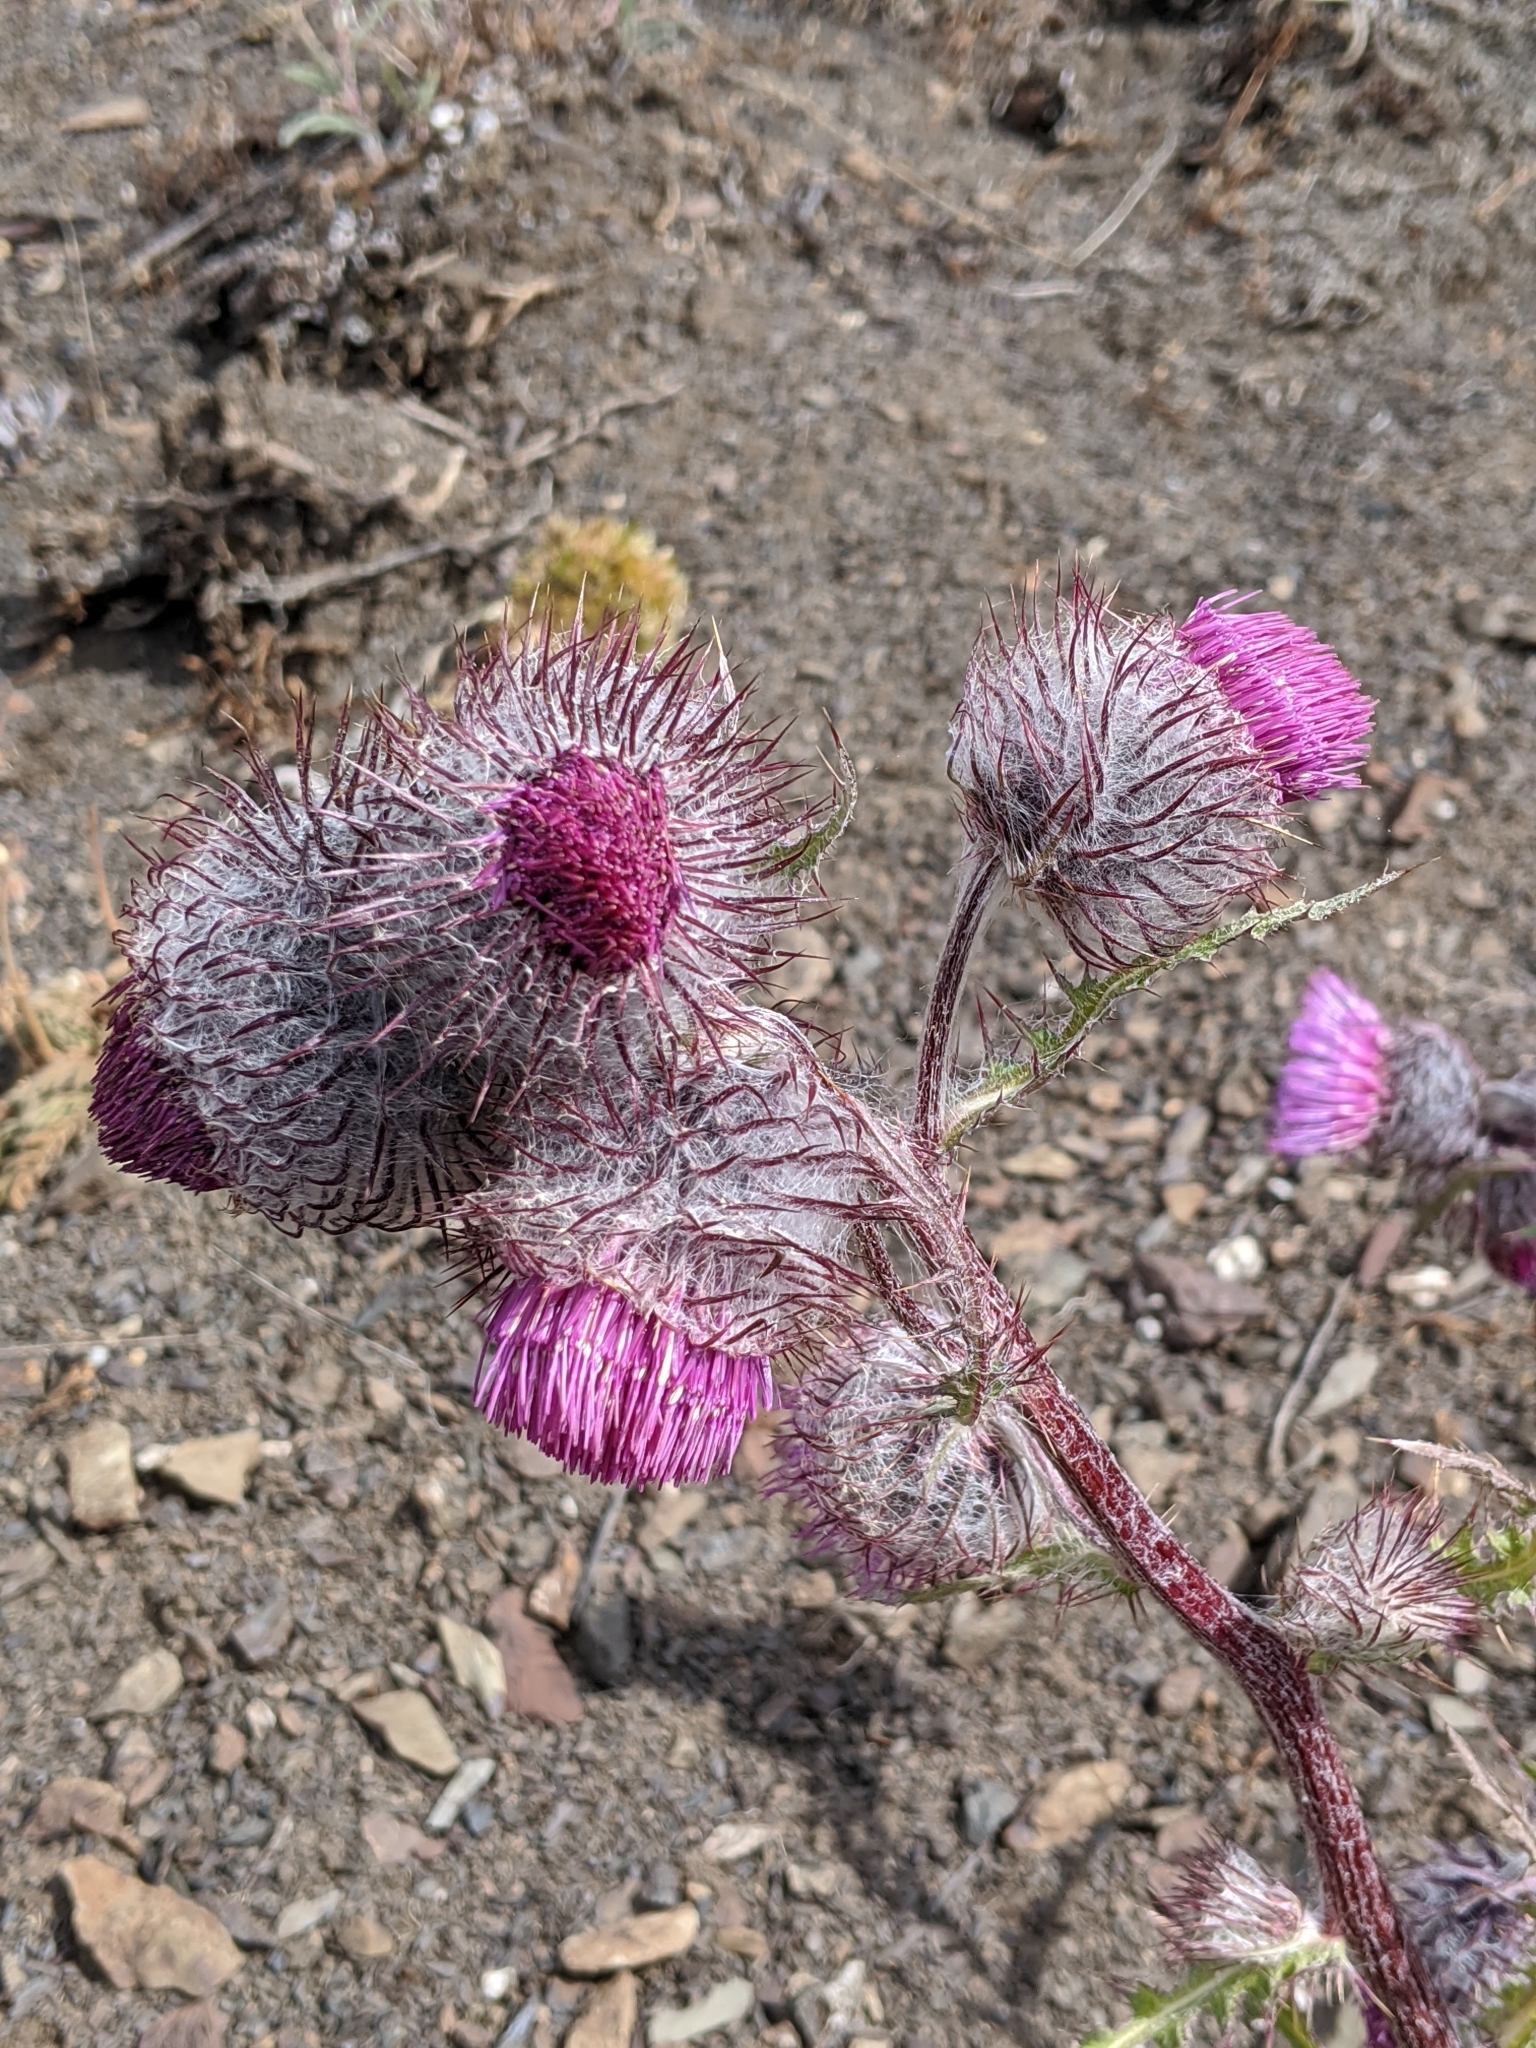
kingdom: Plantae
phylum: Tracheophyta
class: Magnoliopsida
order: Asterales
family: Asteraceae
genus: Cirsium
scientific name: Cirsium edule
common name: Indian thistle
